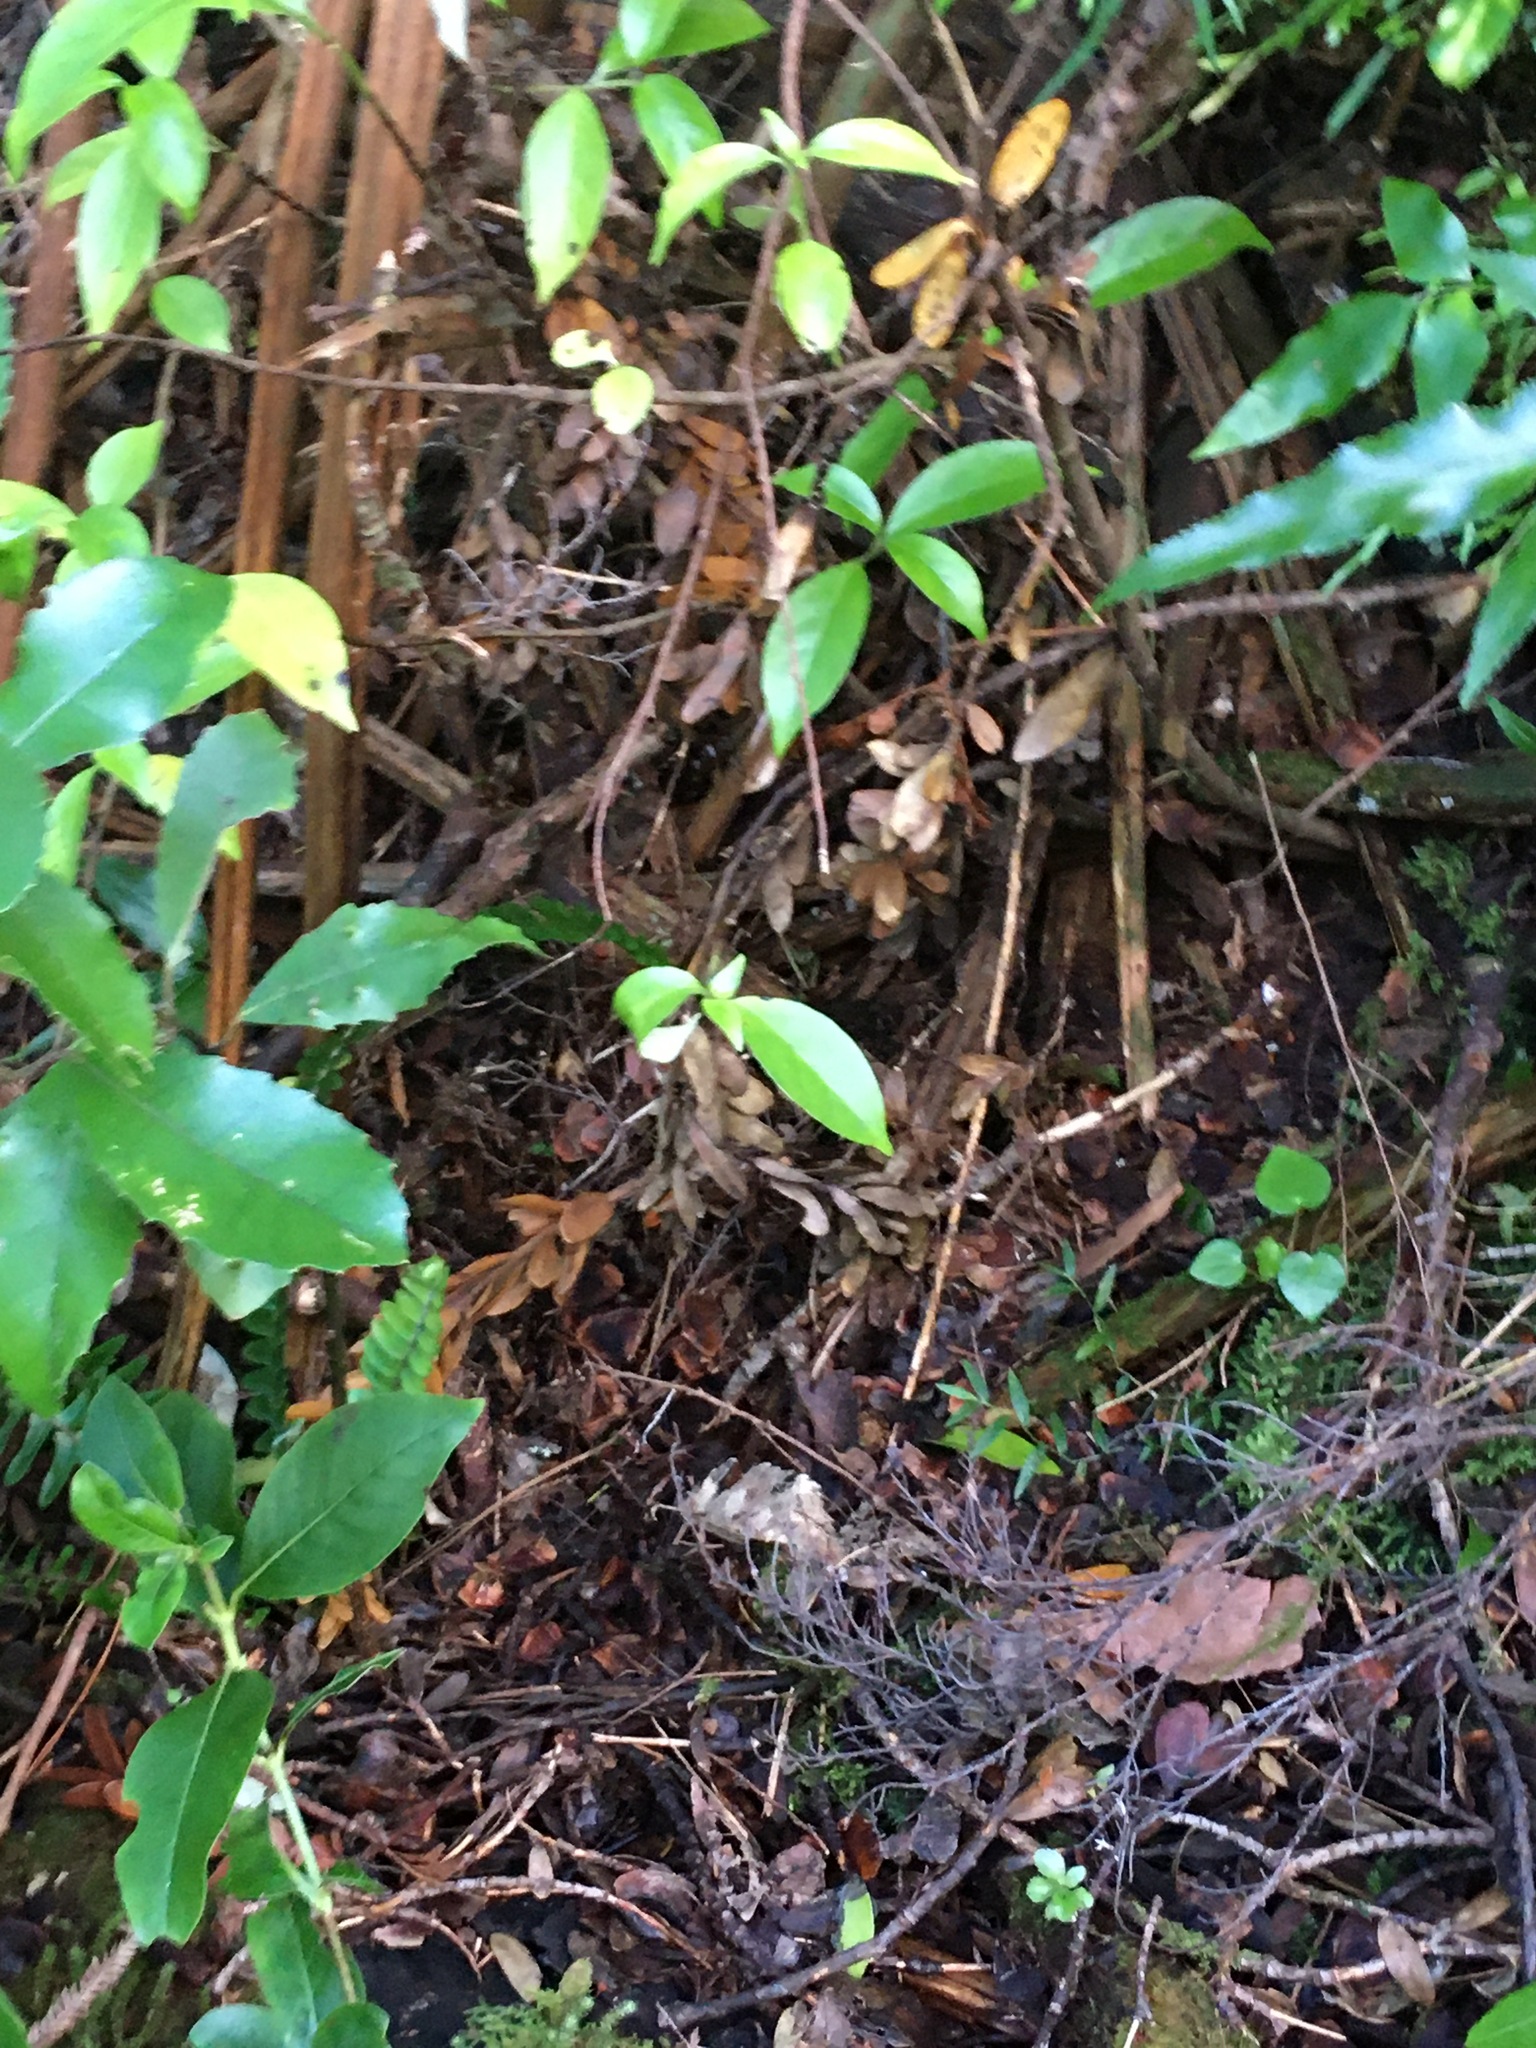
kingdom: Plantae
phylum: Tracheophyta
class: Pinopsida
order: Pinales
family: Araucariaceae
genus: Agathis
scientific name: Agathis australis
